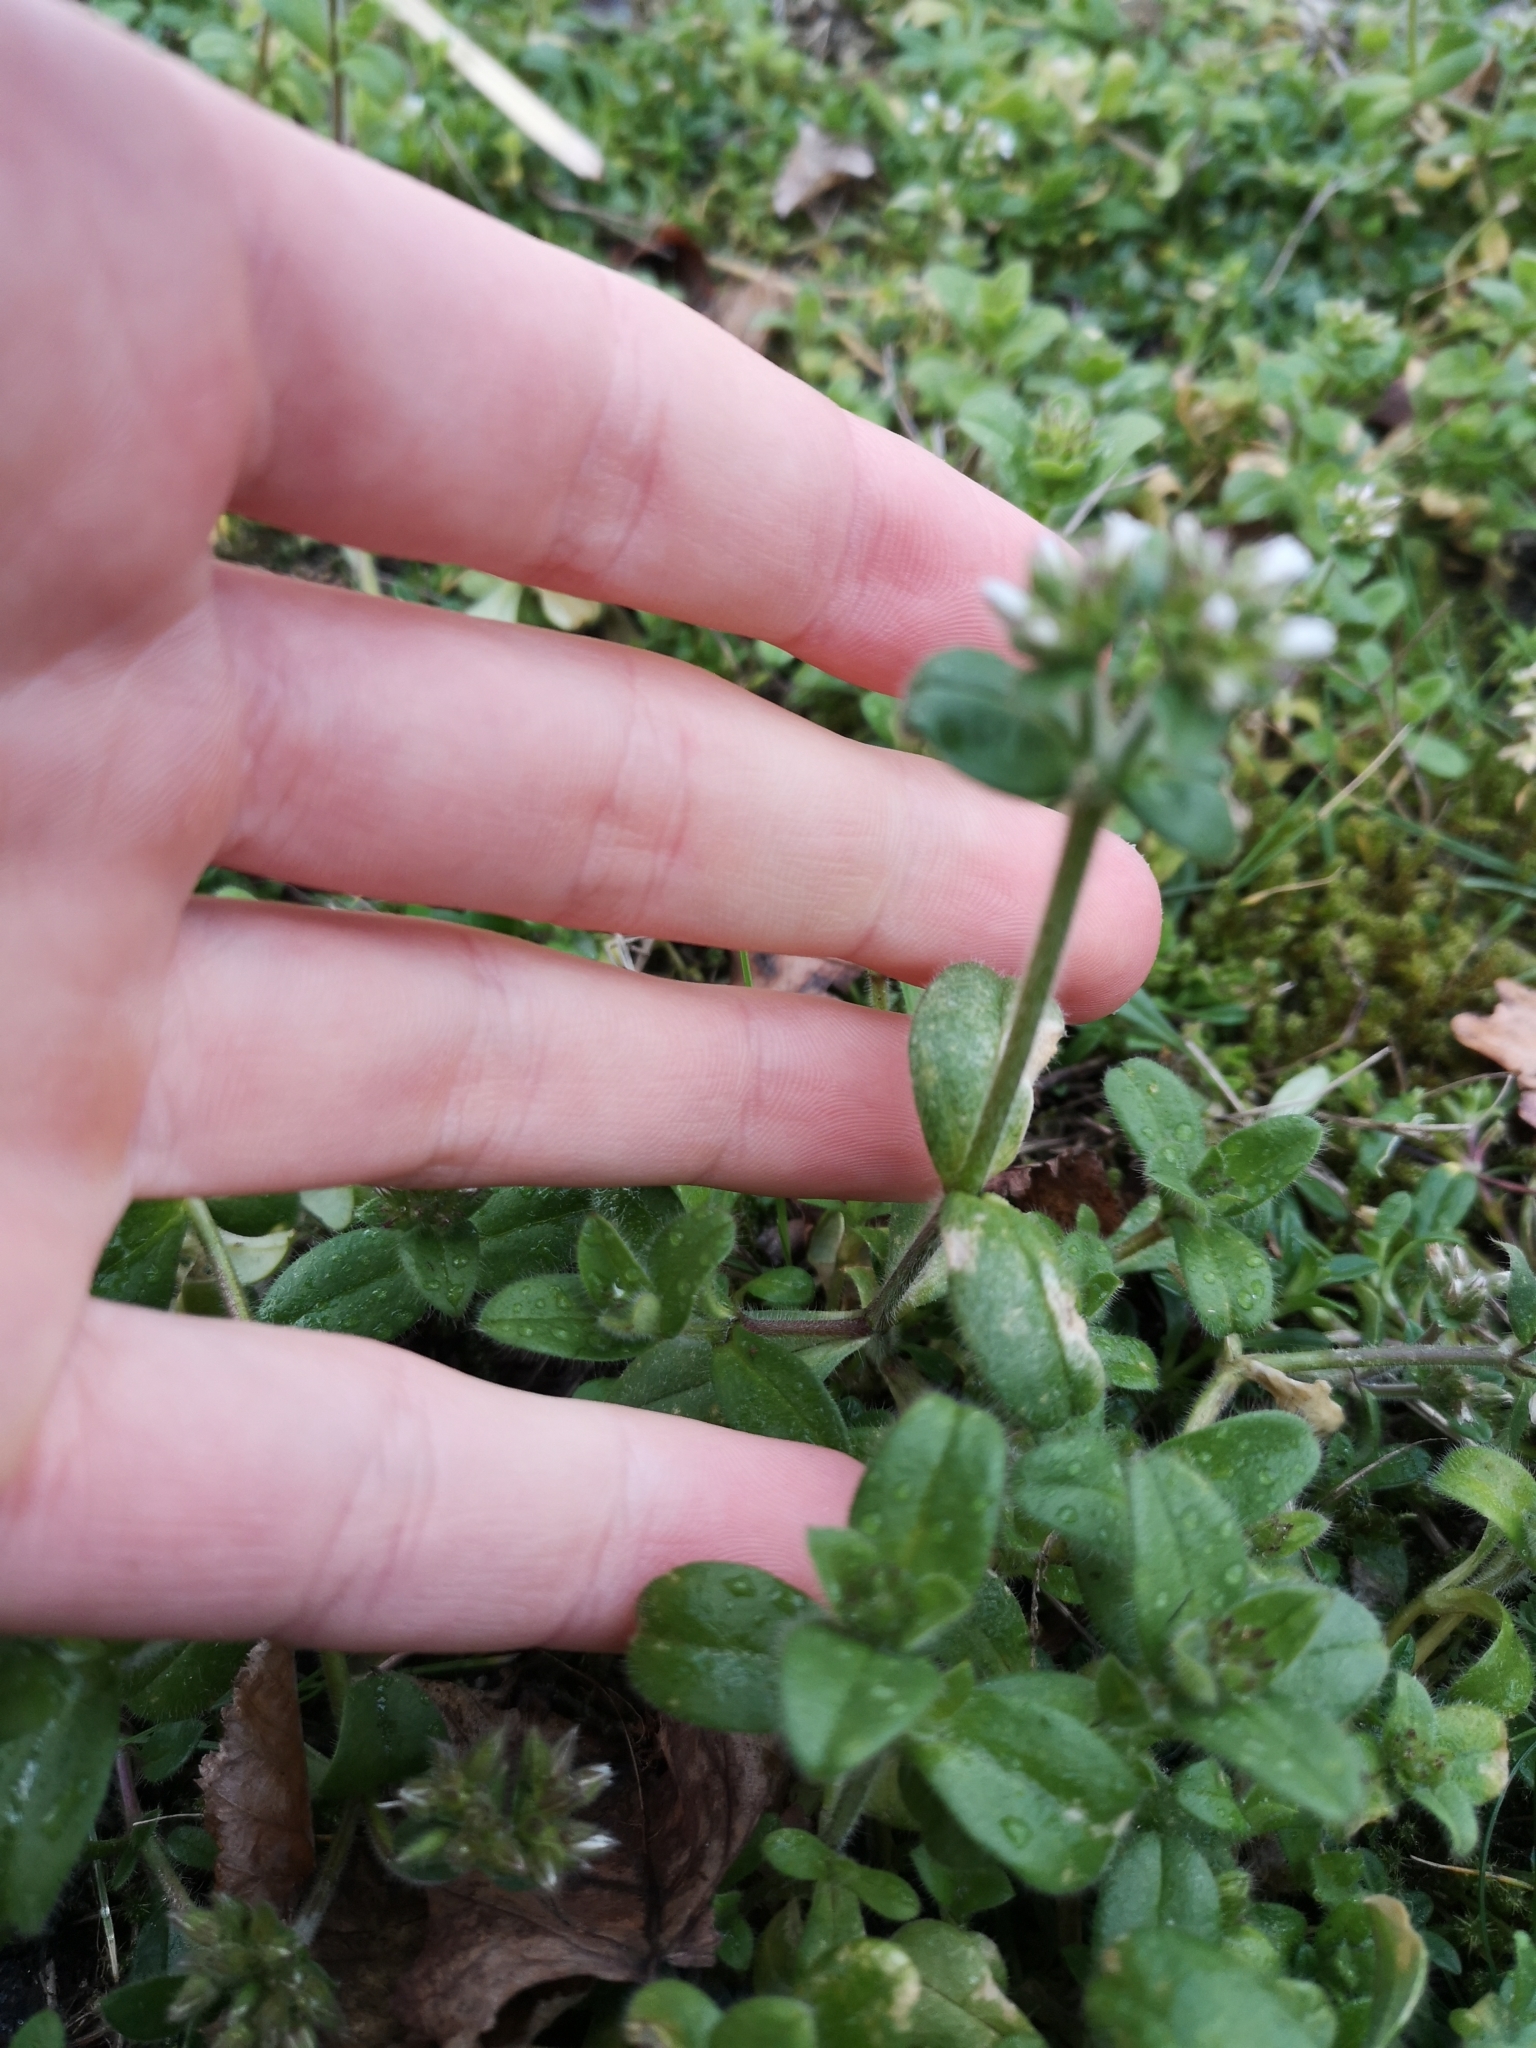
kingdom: Plantae
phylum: Tracheophyta
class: Magnoliopsida
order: Caryophyllales
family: Caryophyllaceae
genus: Cerastium
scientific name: Cerastium glomeratum
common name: Sticky chickweed
